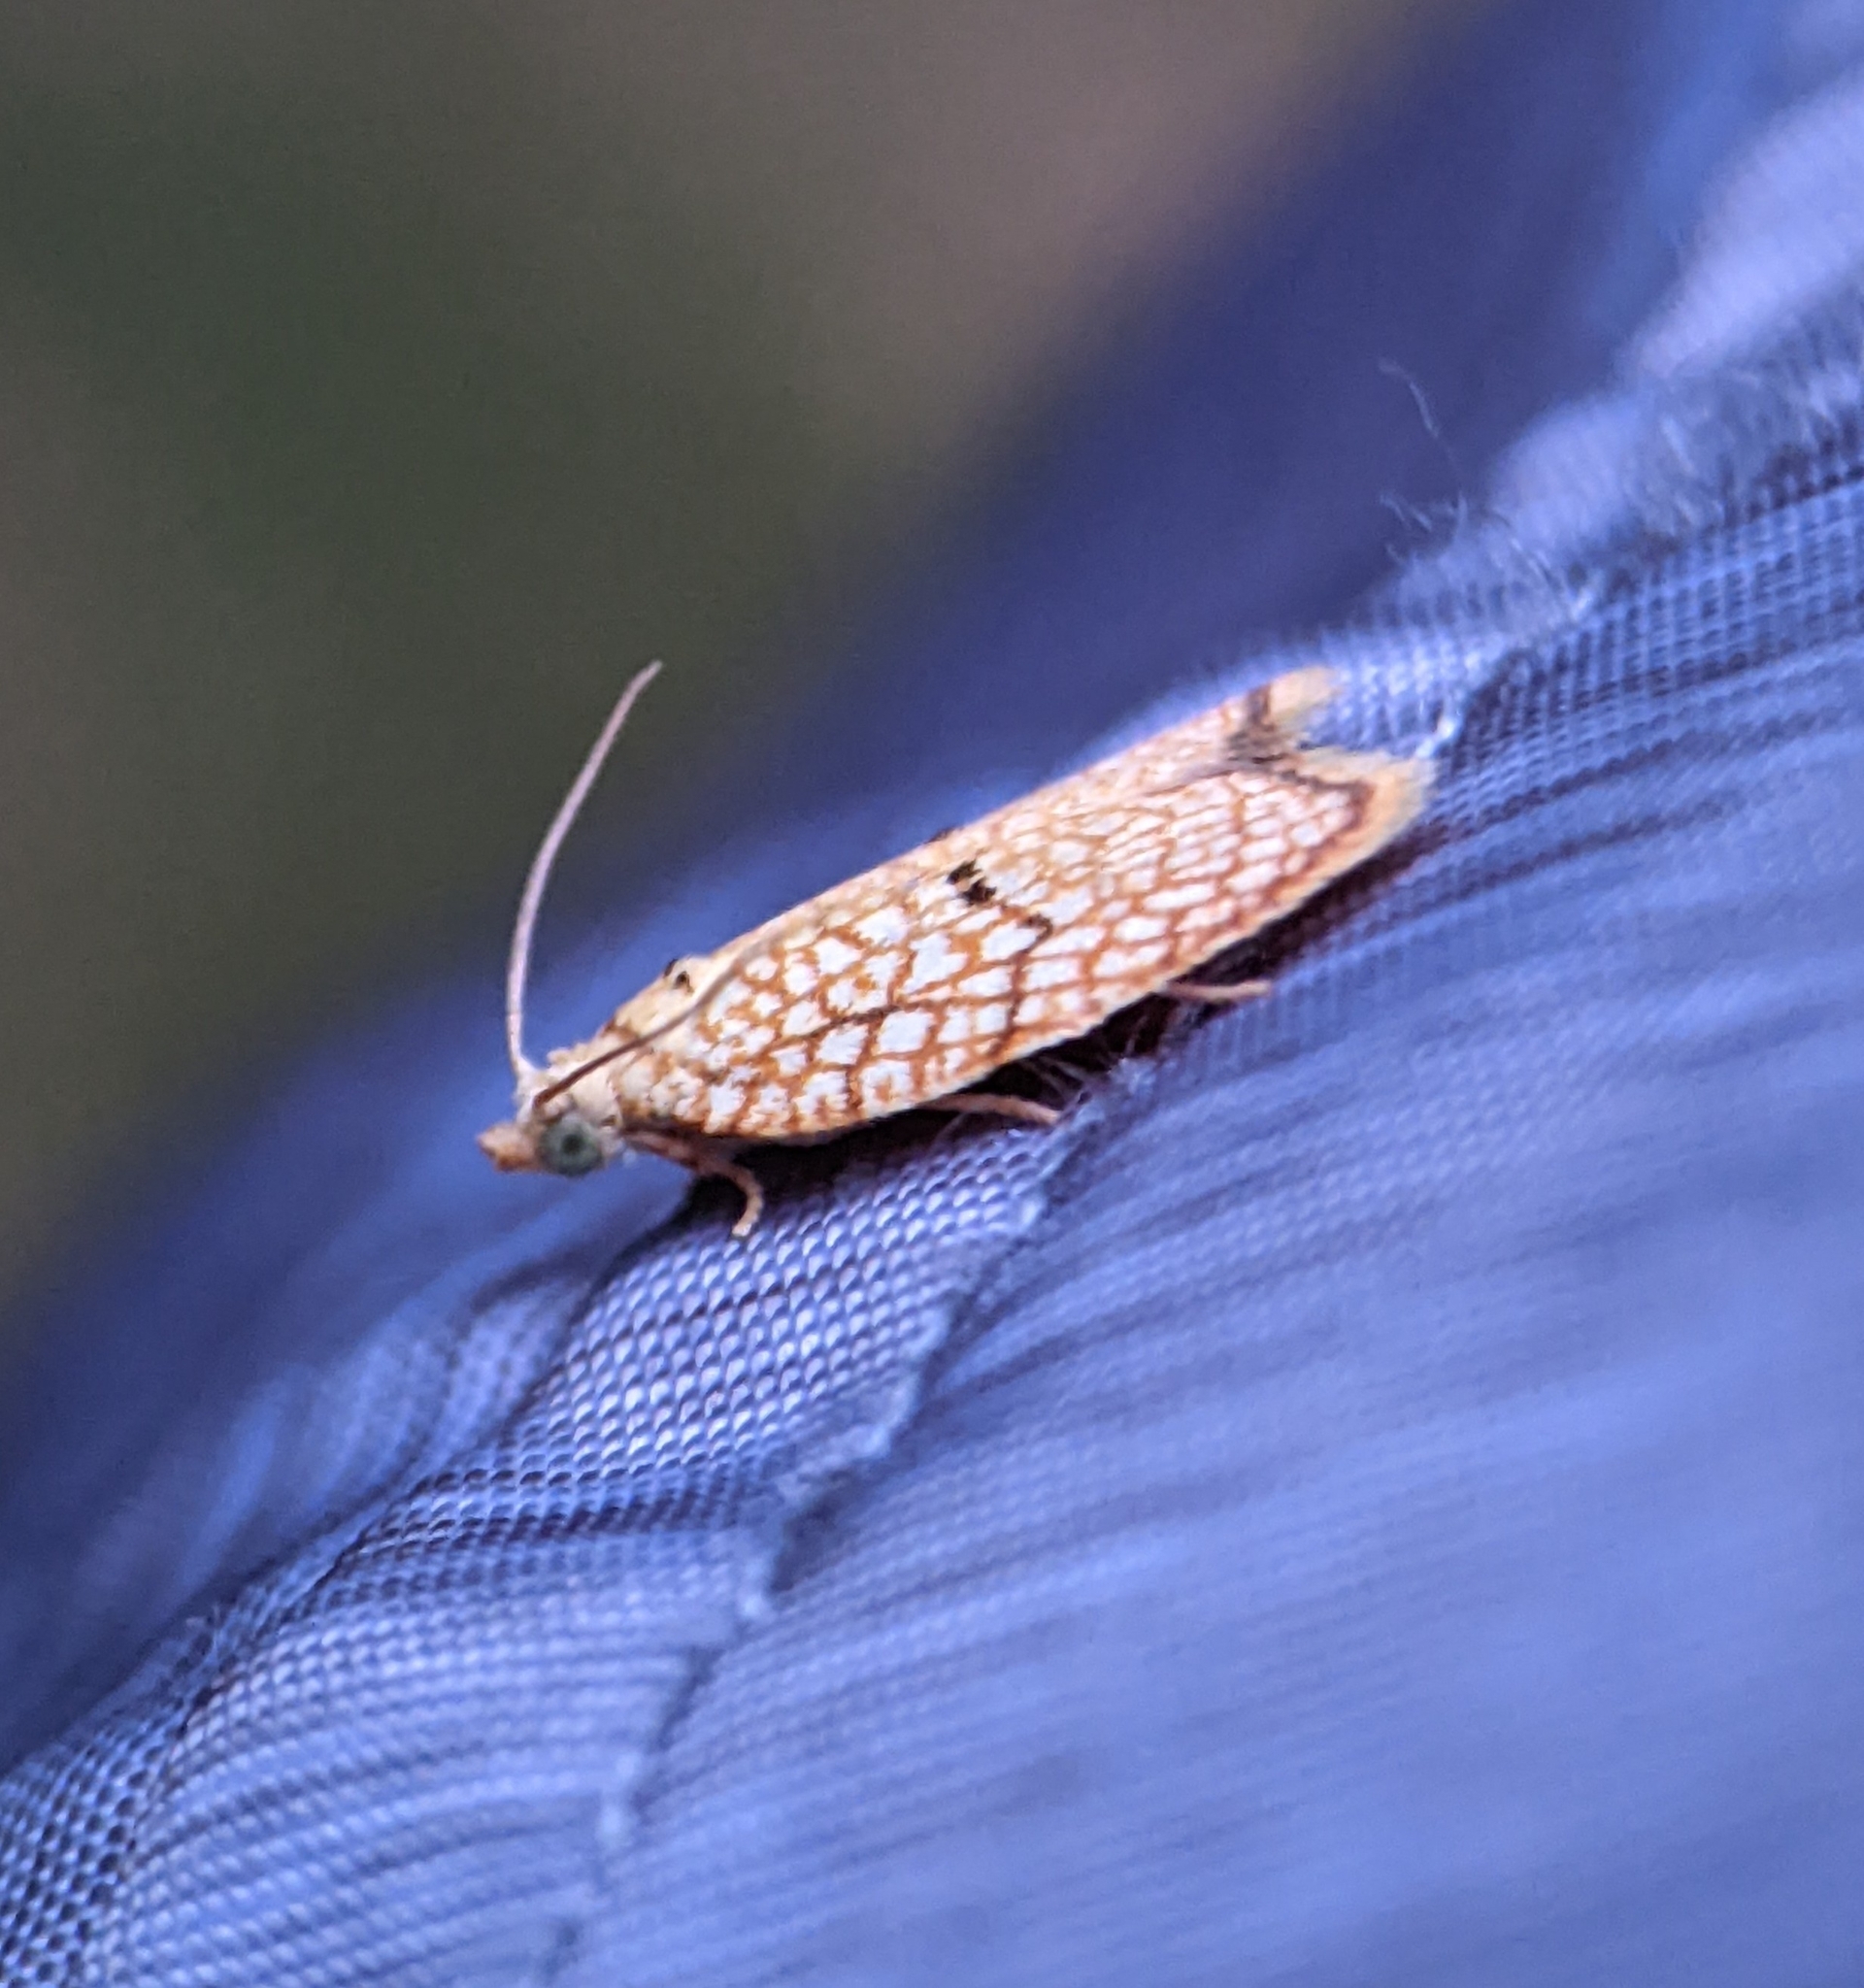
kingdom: Animalia
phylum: Arthropoda
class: Insecta
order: Lepidoptera
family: Tortricidae
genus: Acleris
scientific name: Acleris forsskaleana
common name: Maple button
